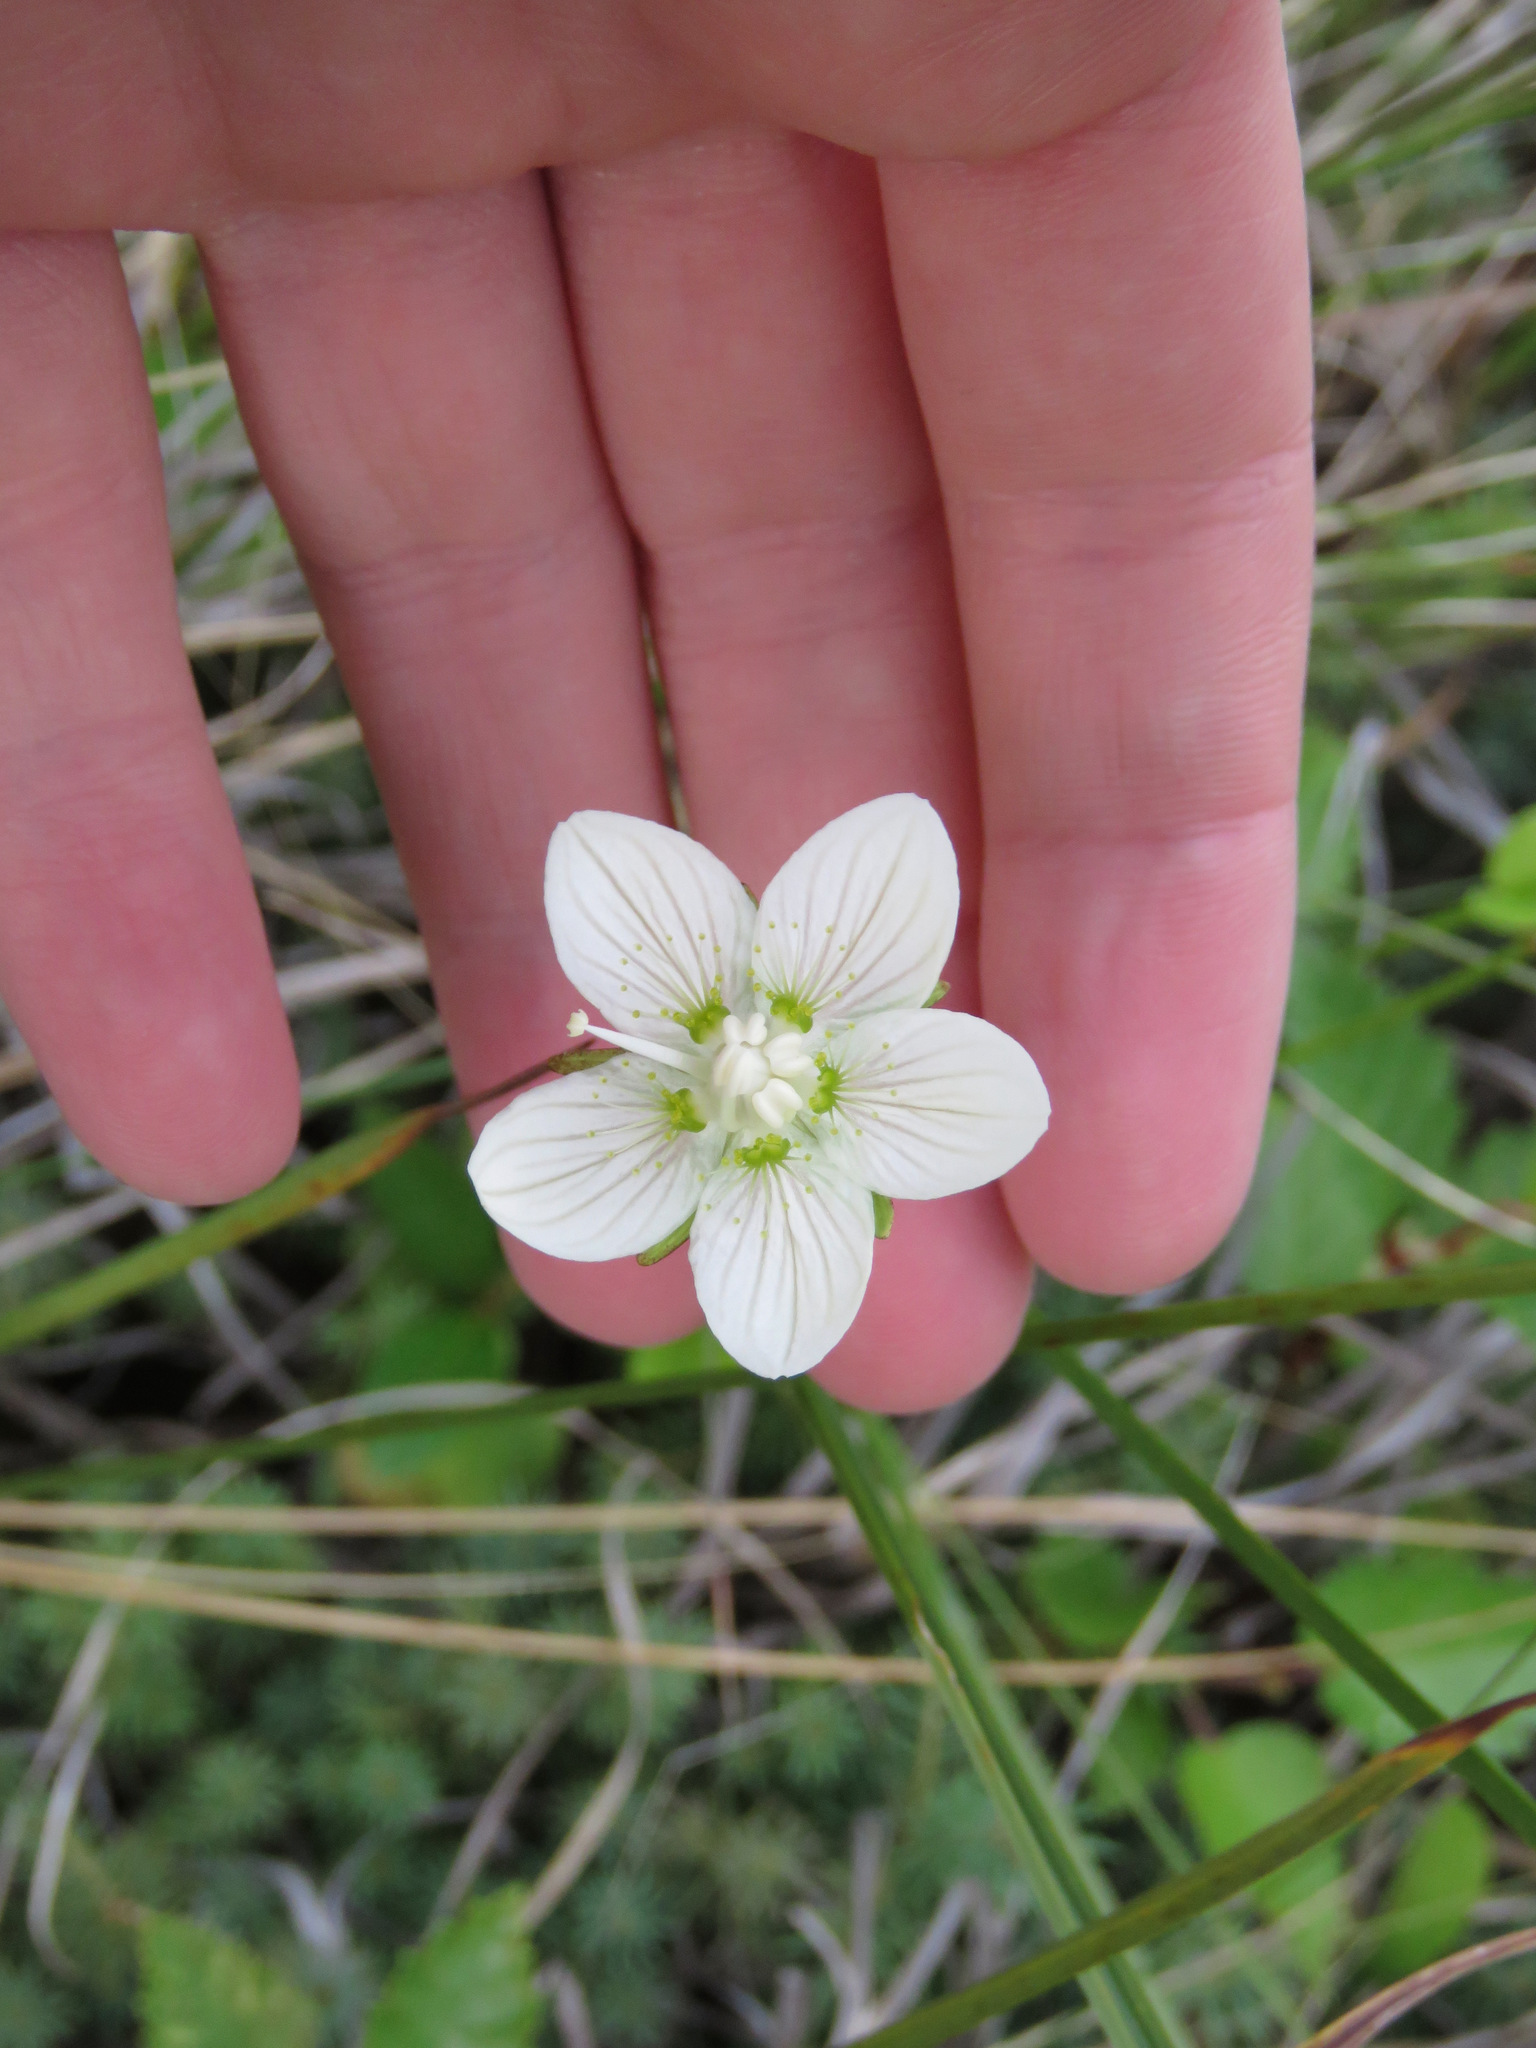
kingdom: Plantae
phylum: Tracheophyta
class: Magnoliopsida
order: Celastrales
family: Parnassiaceae
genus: Parnassia
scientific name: Parnassia palustris
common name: Grass-of-parnassus
